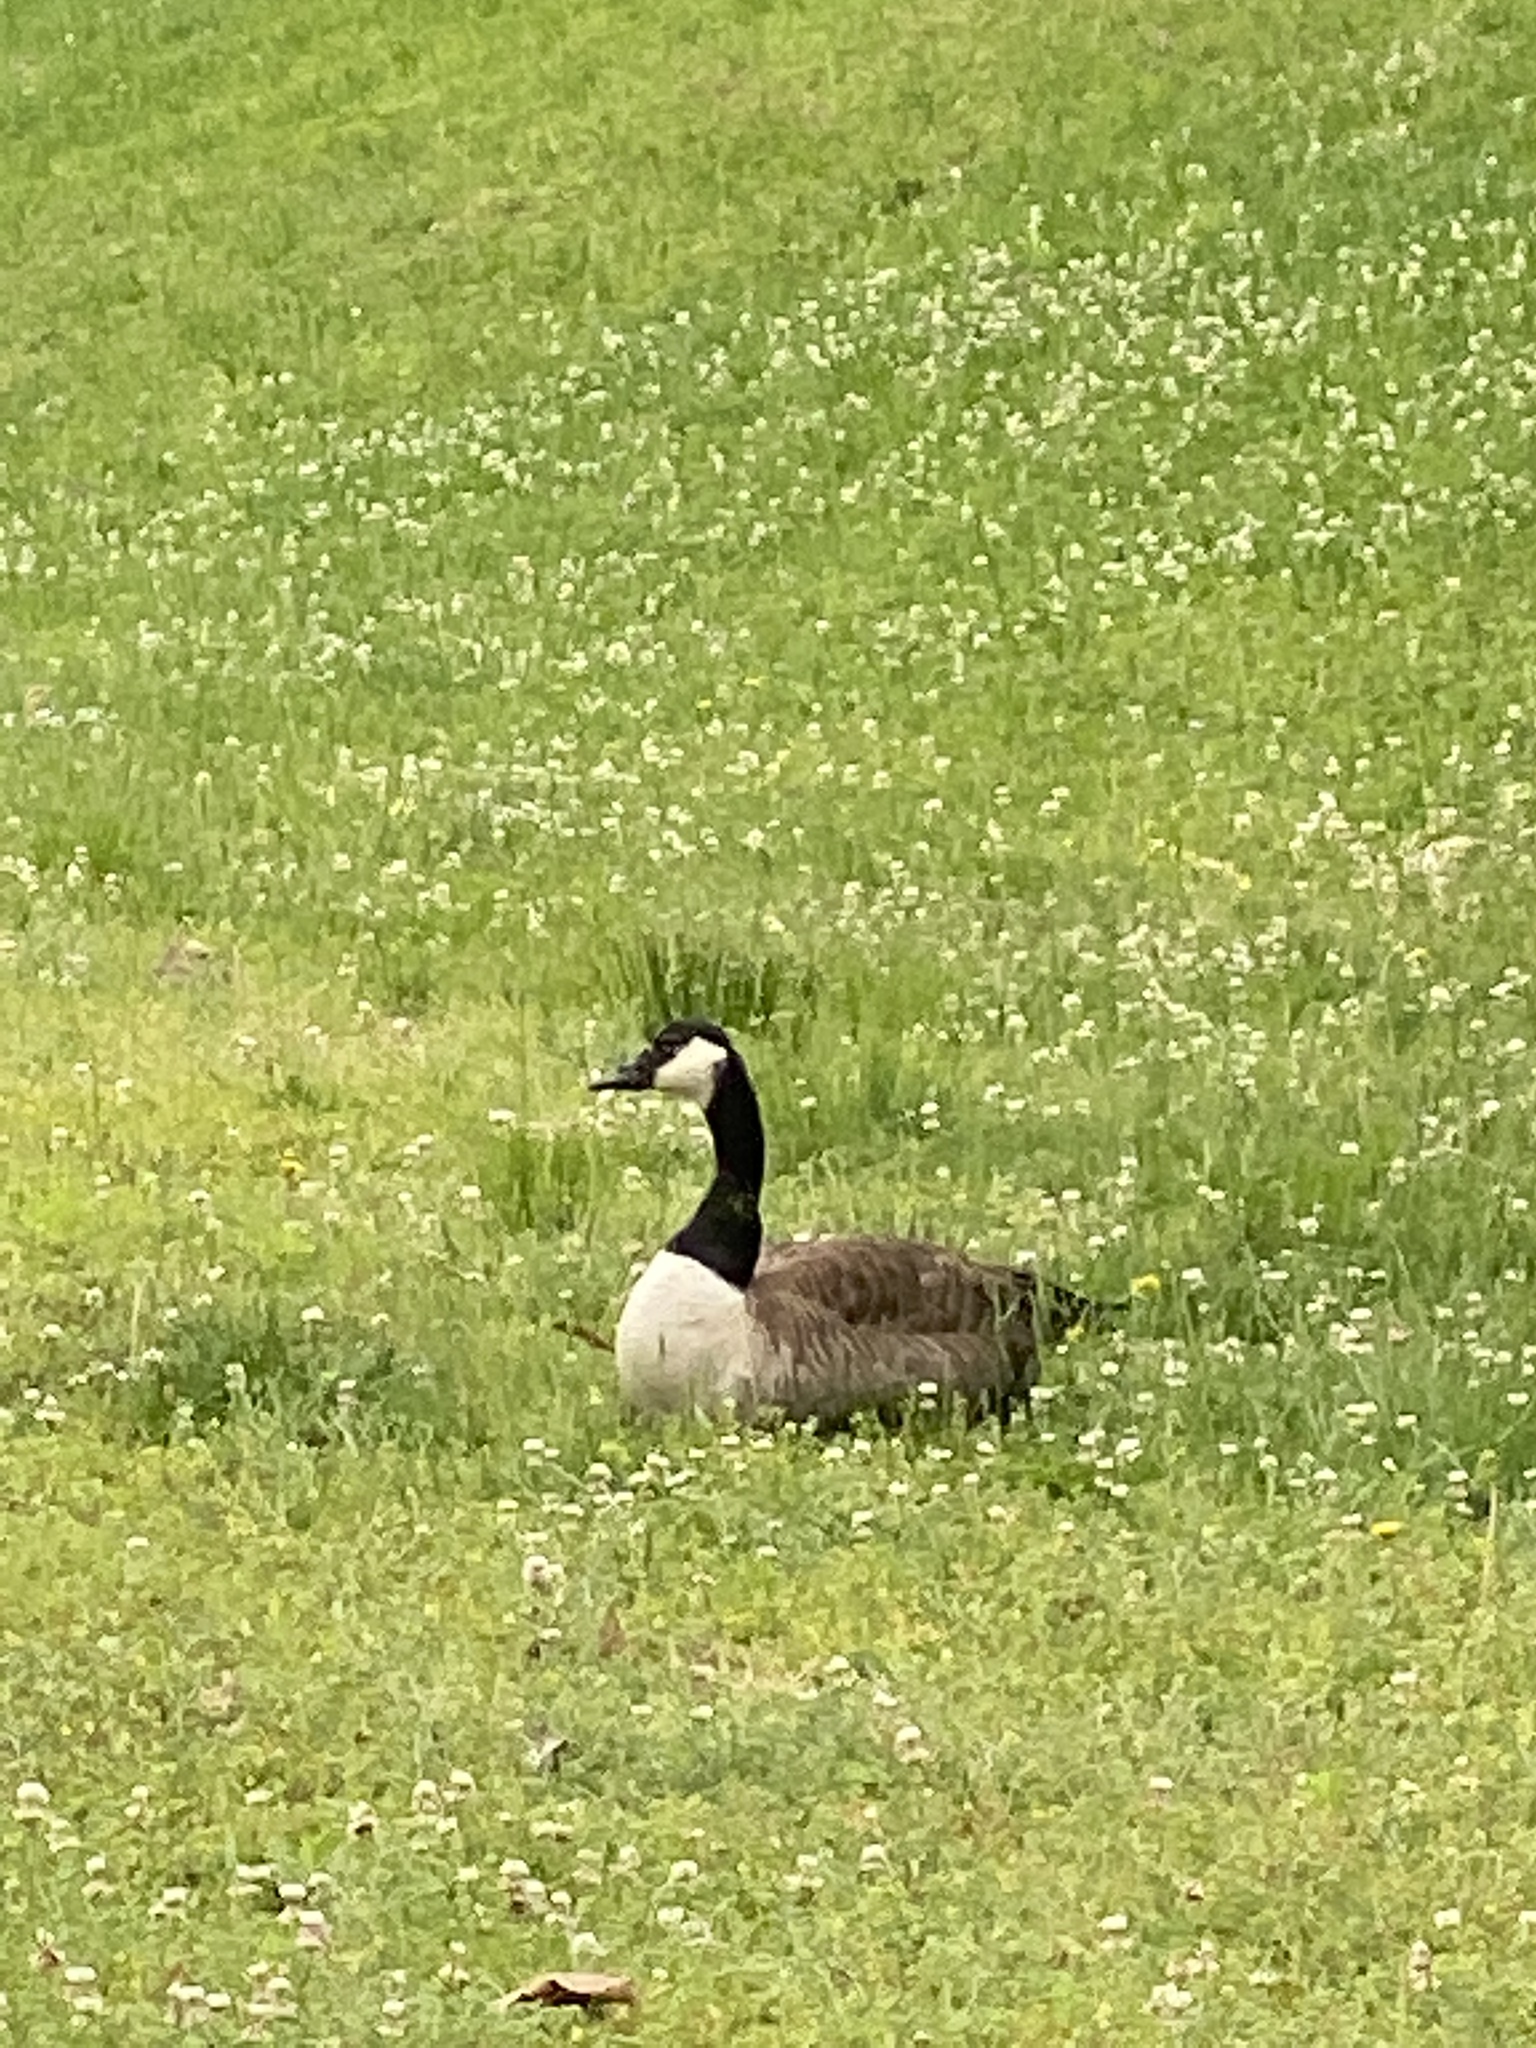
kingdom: Animalia
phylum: Chordata
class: Aves
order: Anseriformes
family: Anatidae
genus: Branta
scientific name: Branta canadensis
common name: Canada goose
